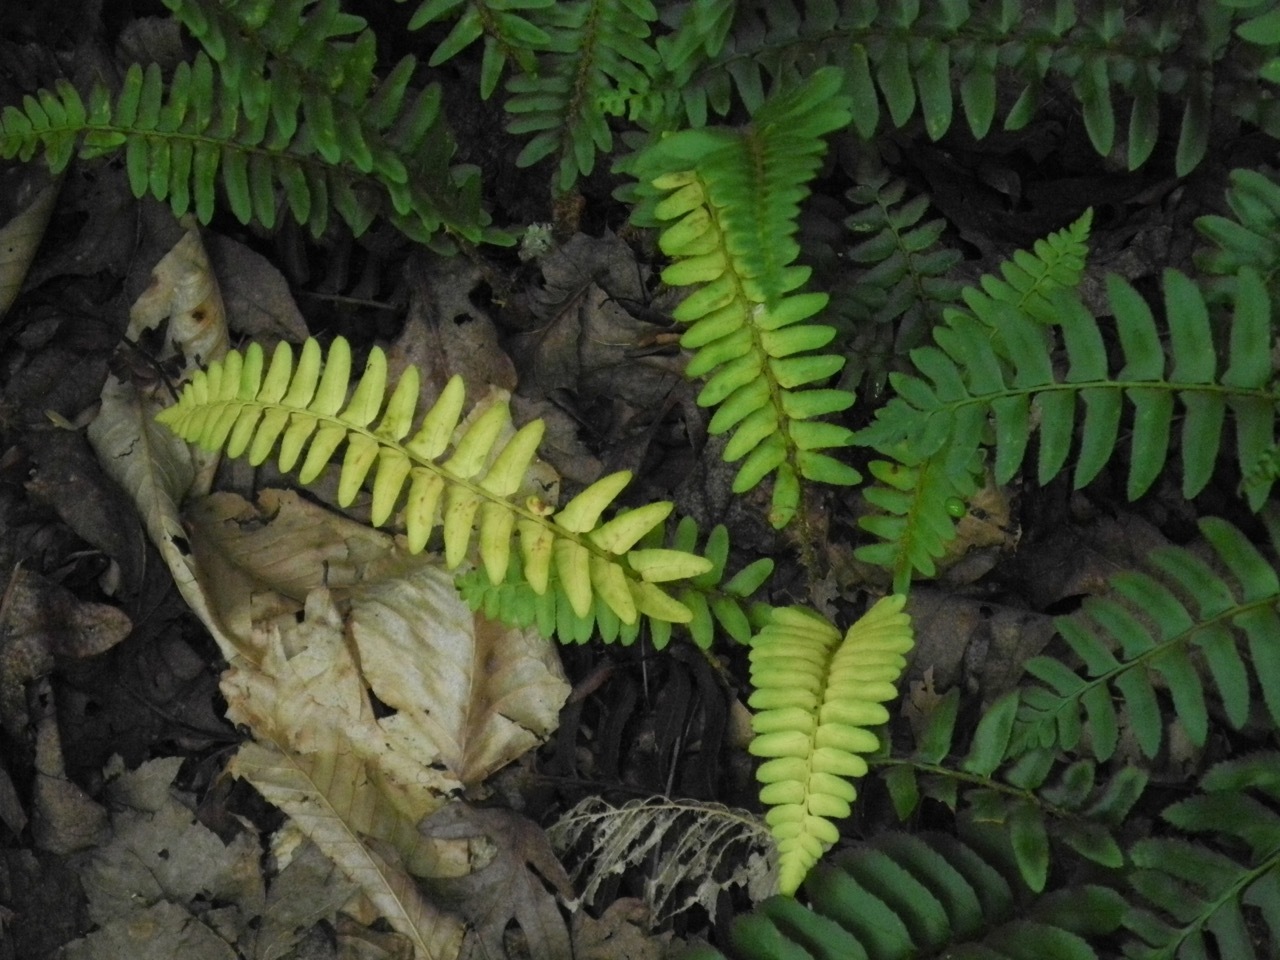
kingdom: Plantae
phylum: Tracheophyta
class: Polypodiopsida
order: Polypodiales
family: Dryopteridaceae
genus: Polystichum
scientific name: Polystichum acrostichoides
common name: Christmas fern
